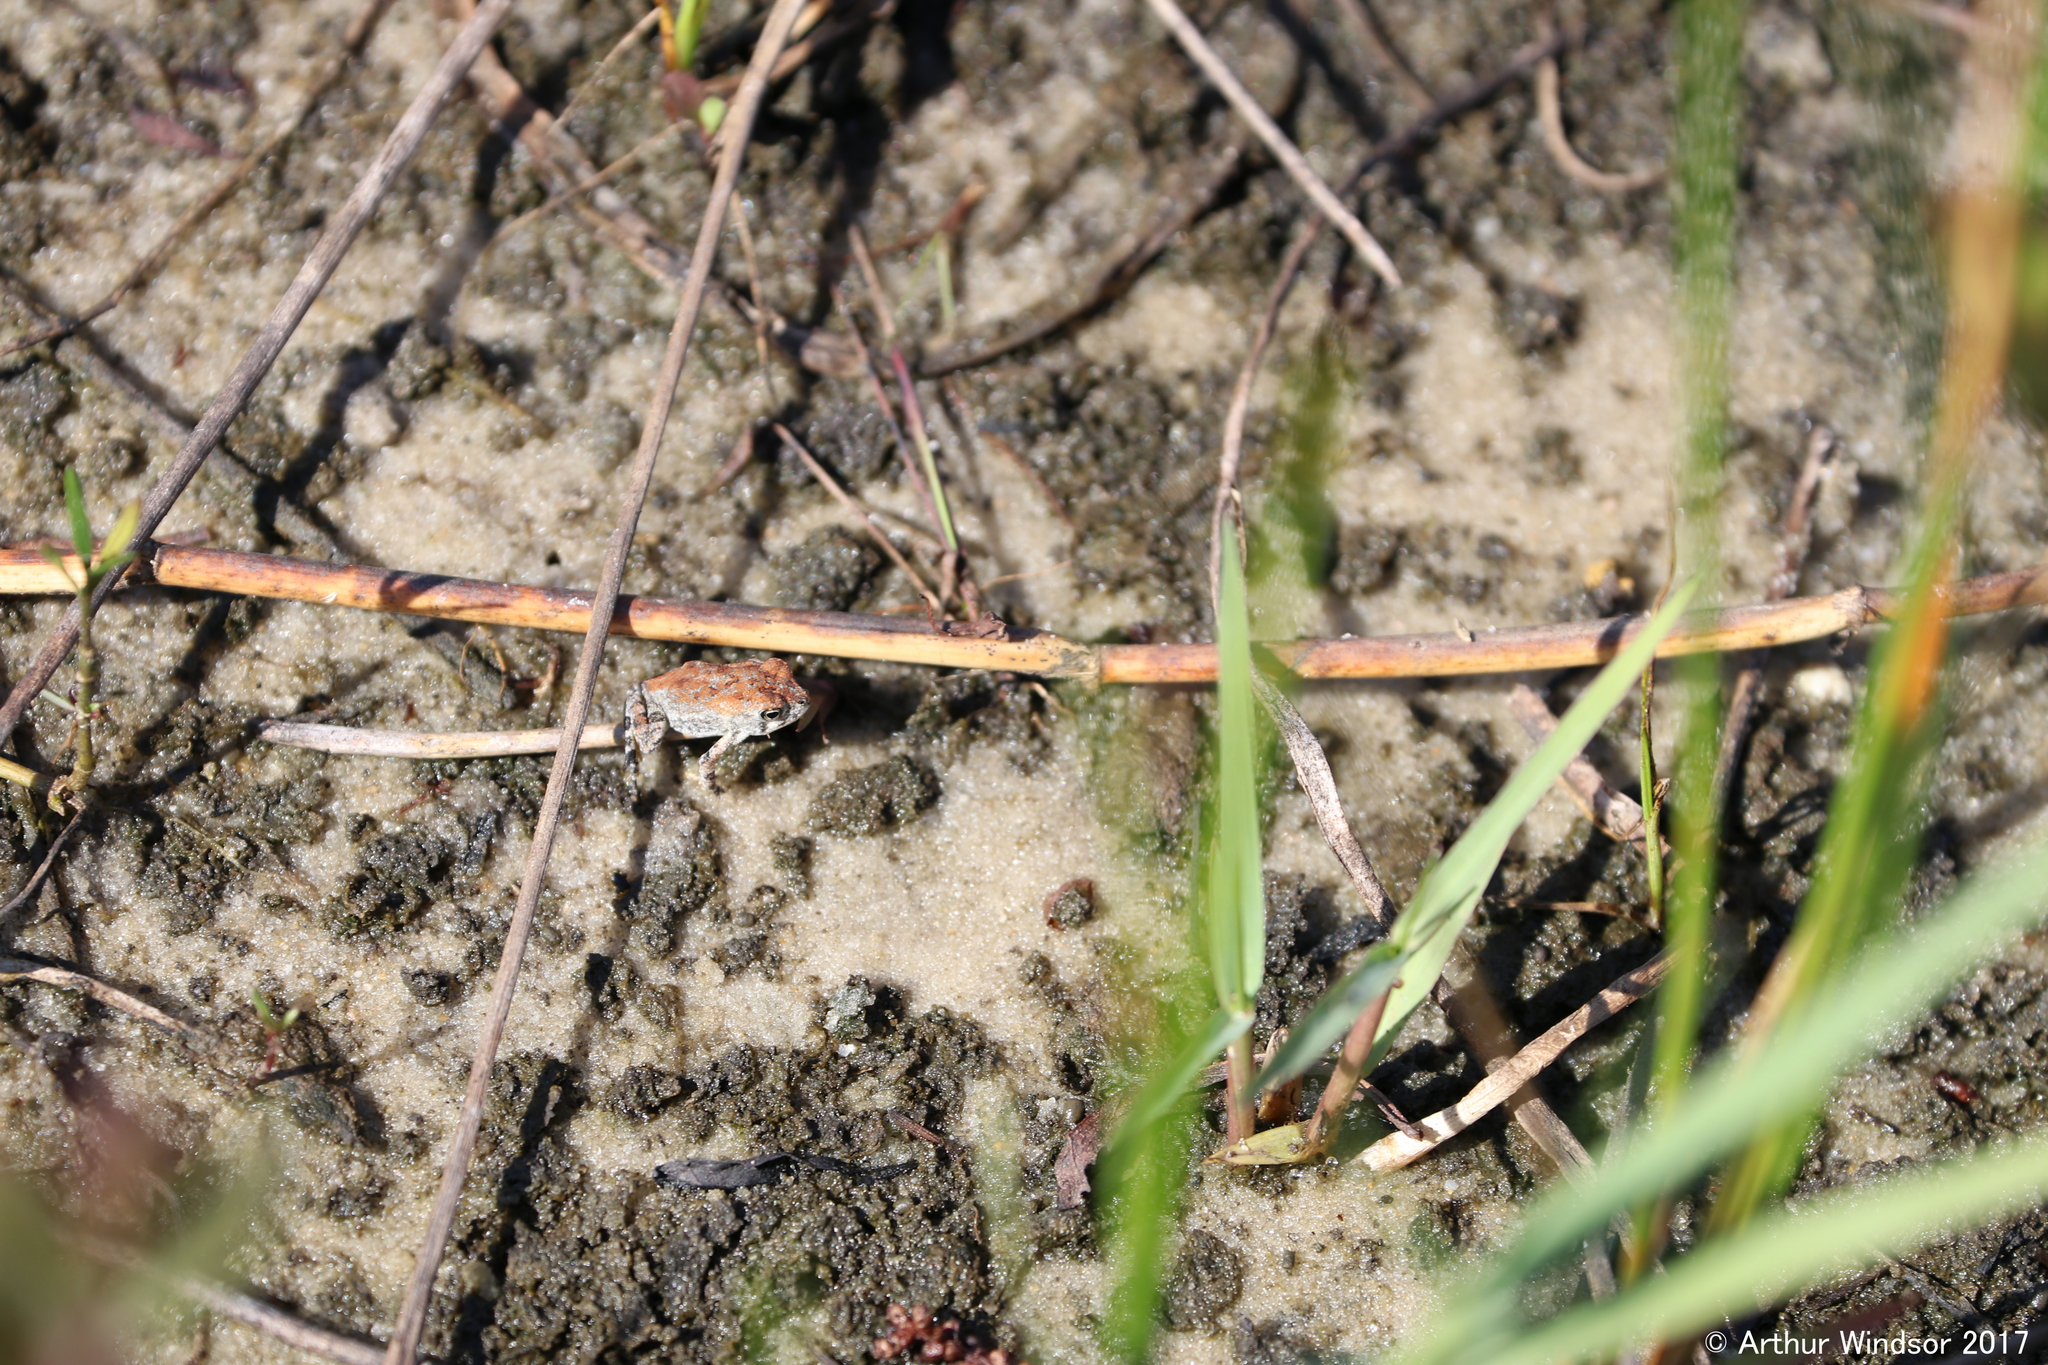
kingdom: Animalia
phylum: Chordata
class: Amphibia
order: Anura
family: Bufonidae
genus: Anaxyrus
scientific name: Anaxyrus terrestris
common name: Southern toad
